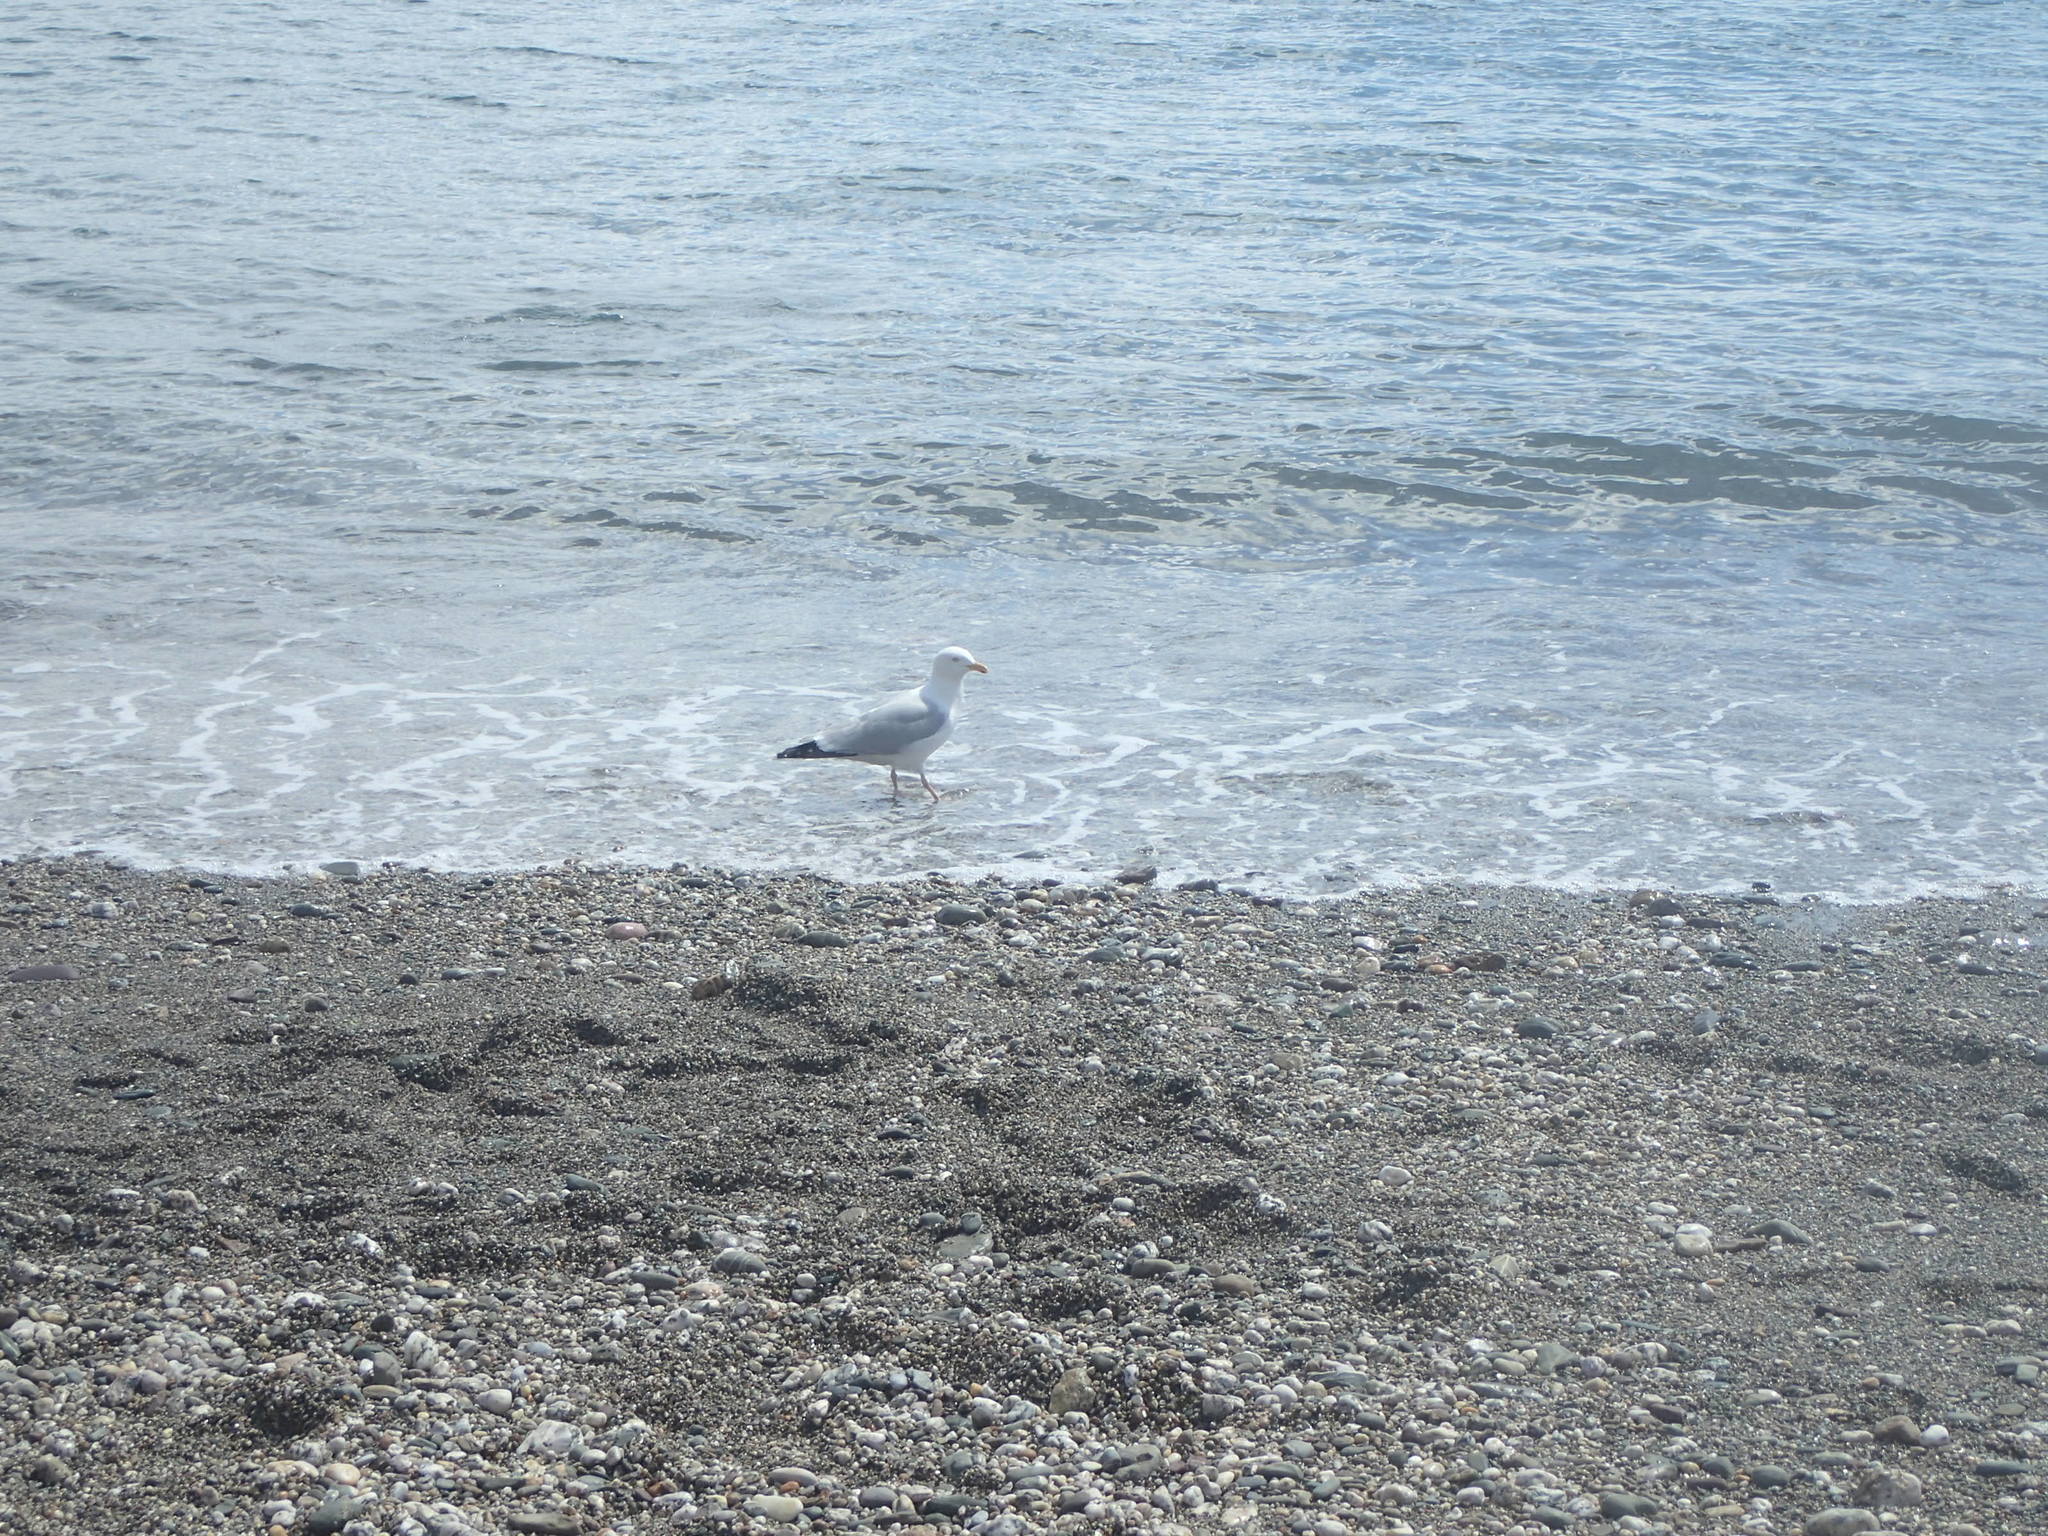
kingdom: Animalia
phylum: Chordata
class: Aves
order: Charadriiformes
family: Laridae
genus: Larus
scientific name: Larus argentatus
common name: Herring gull
